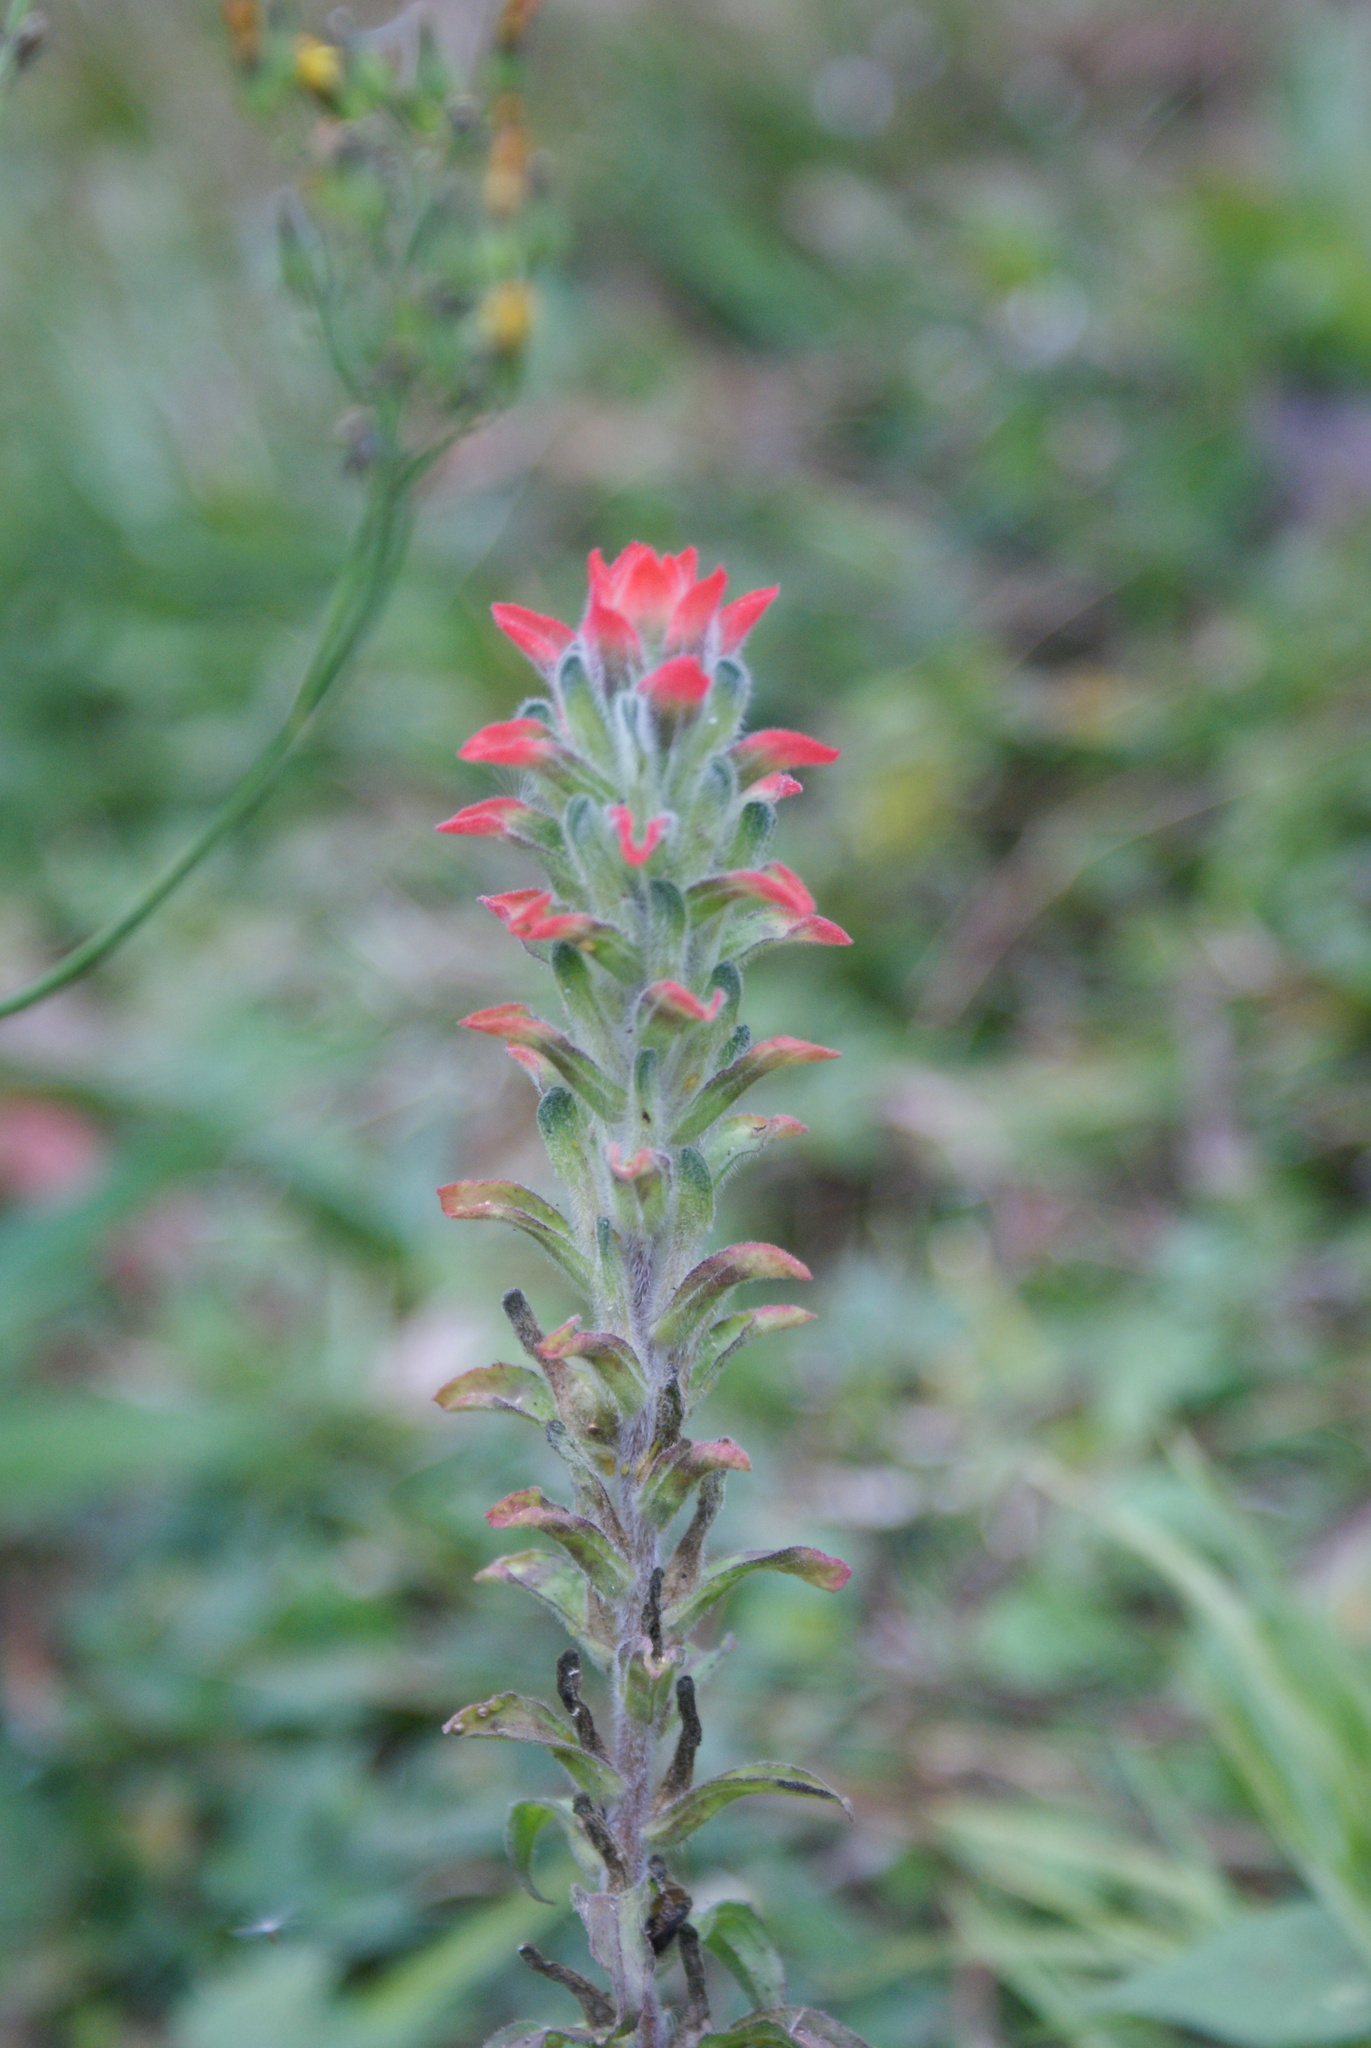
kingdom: Plantae
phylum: Tracheophyta
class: Magnoliopsida
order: Lamiales
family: Orobanchaceae
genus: Castilleja
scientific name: Castilleja arvensis
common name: Indian paintbrush
